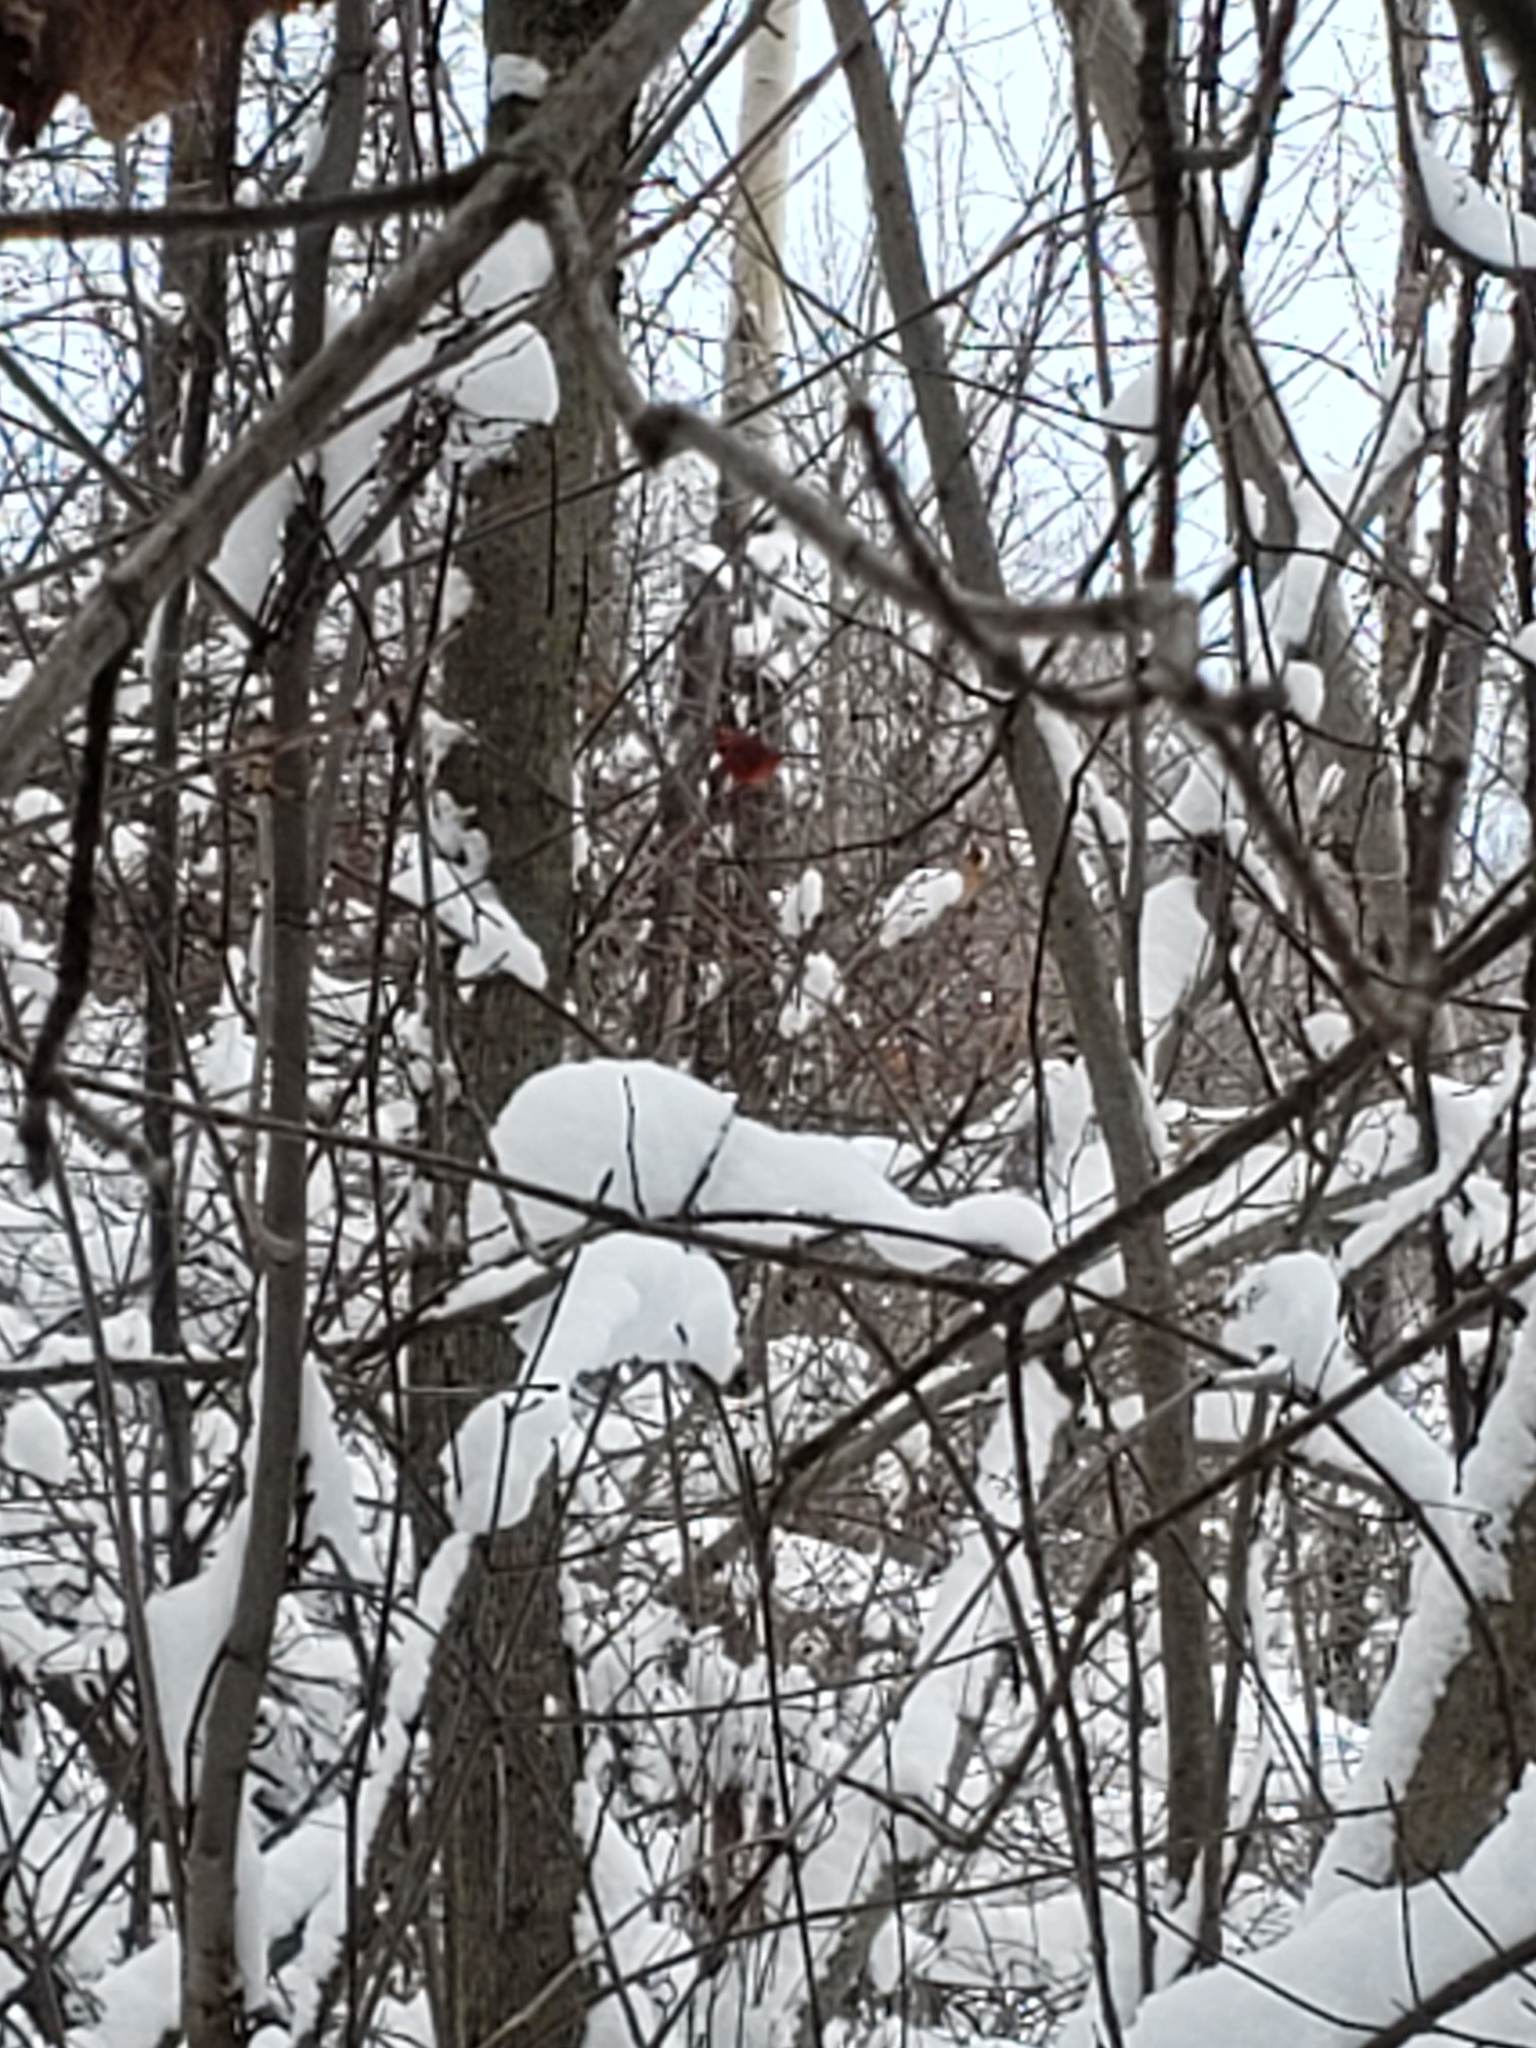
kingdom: Animalia
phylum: Chordata
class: Aves
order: Passeriformes
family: Cardinalidae
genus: Cardinalis
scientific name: Cardinalis cardinalis
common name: Northern cardinal
